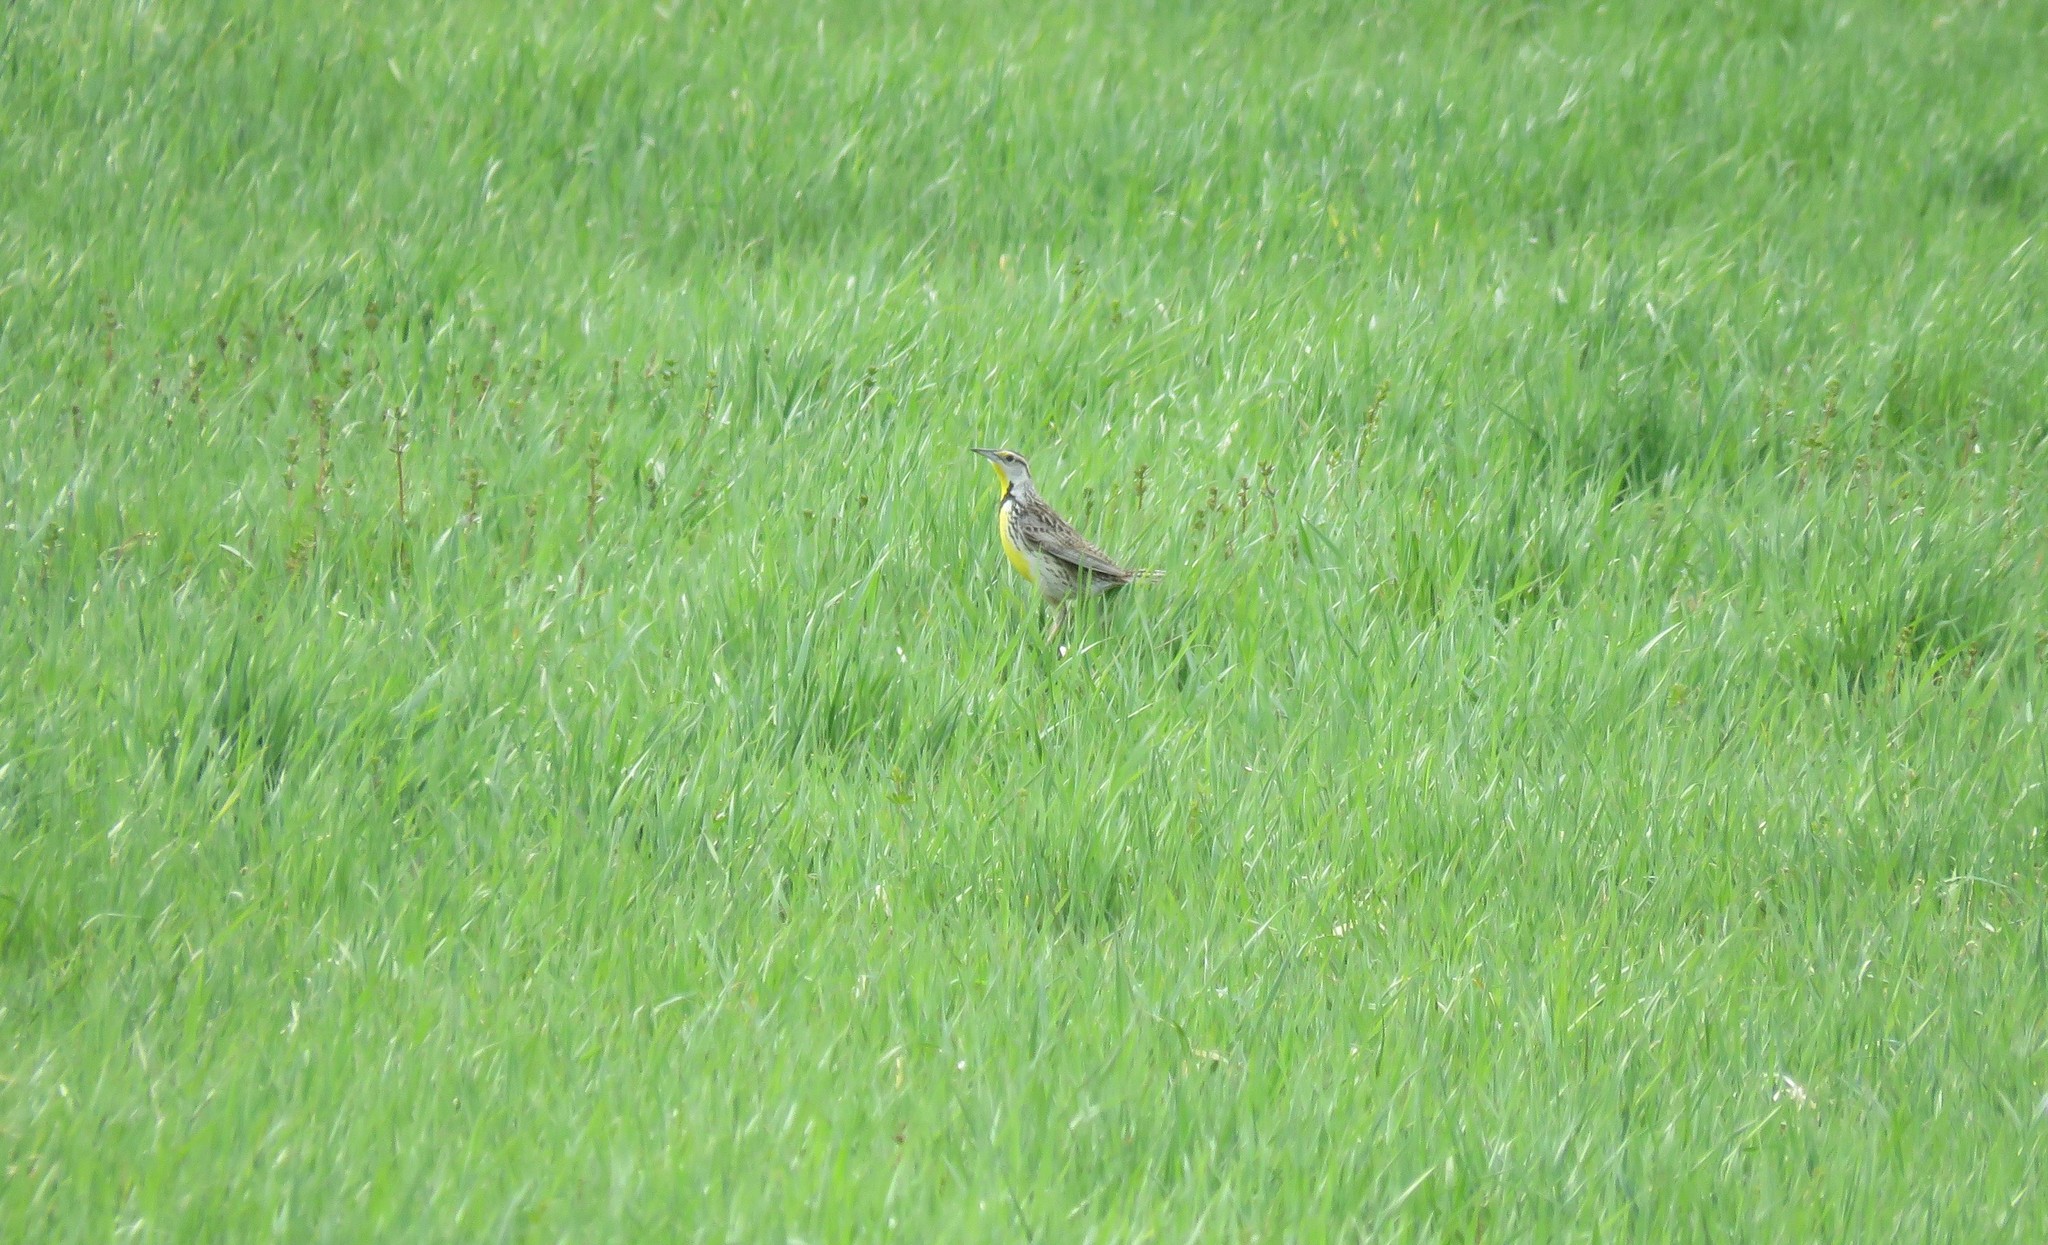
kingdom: Animalia
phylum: Chordata
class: Aves
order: Passeriformes
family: Icteridae
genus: Sturnella
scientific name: Sturnella magna
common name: Eastern meadowlark
